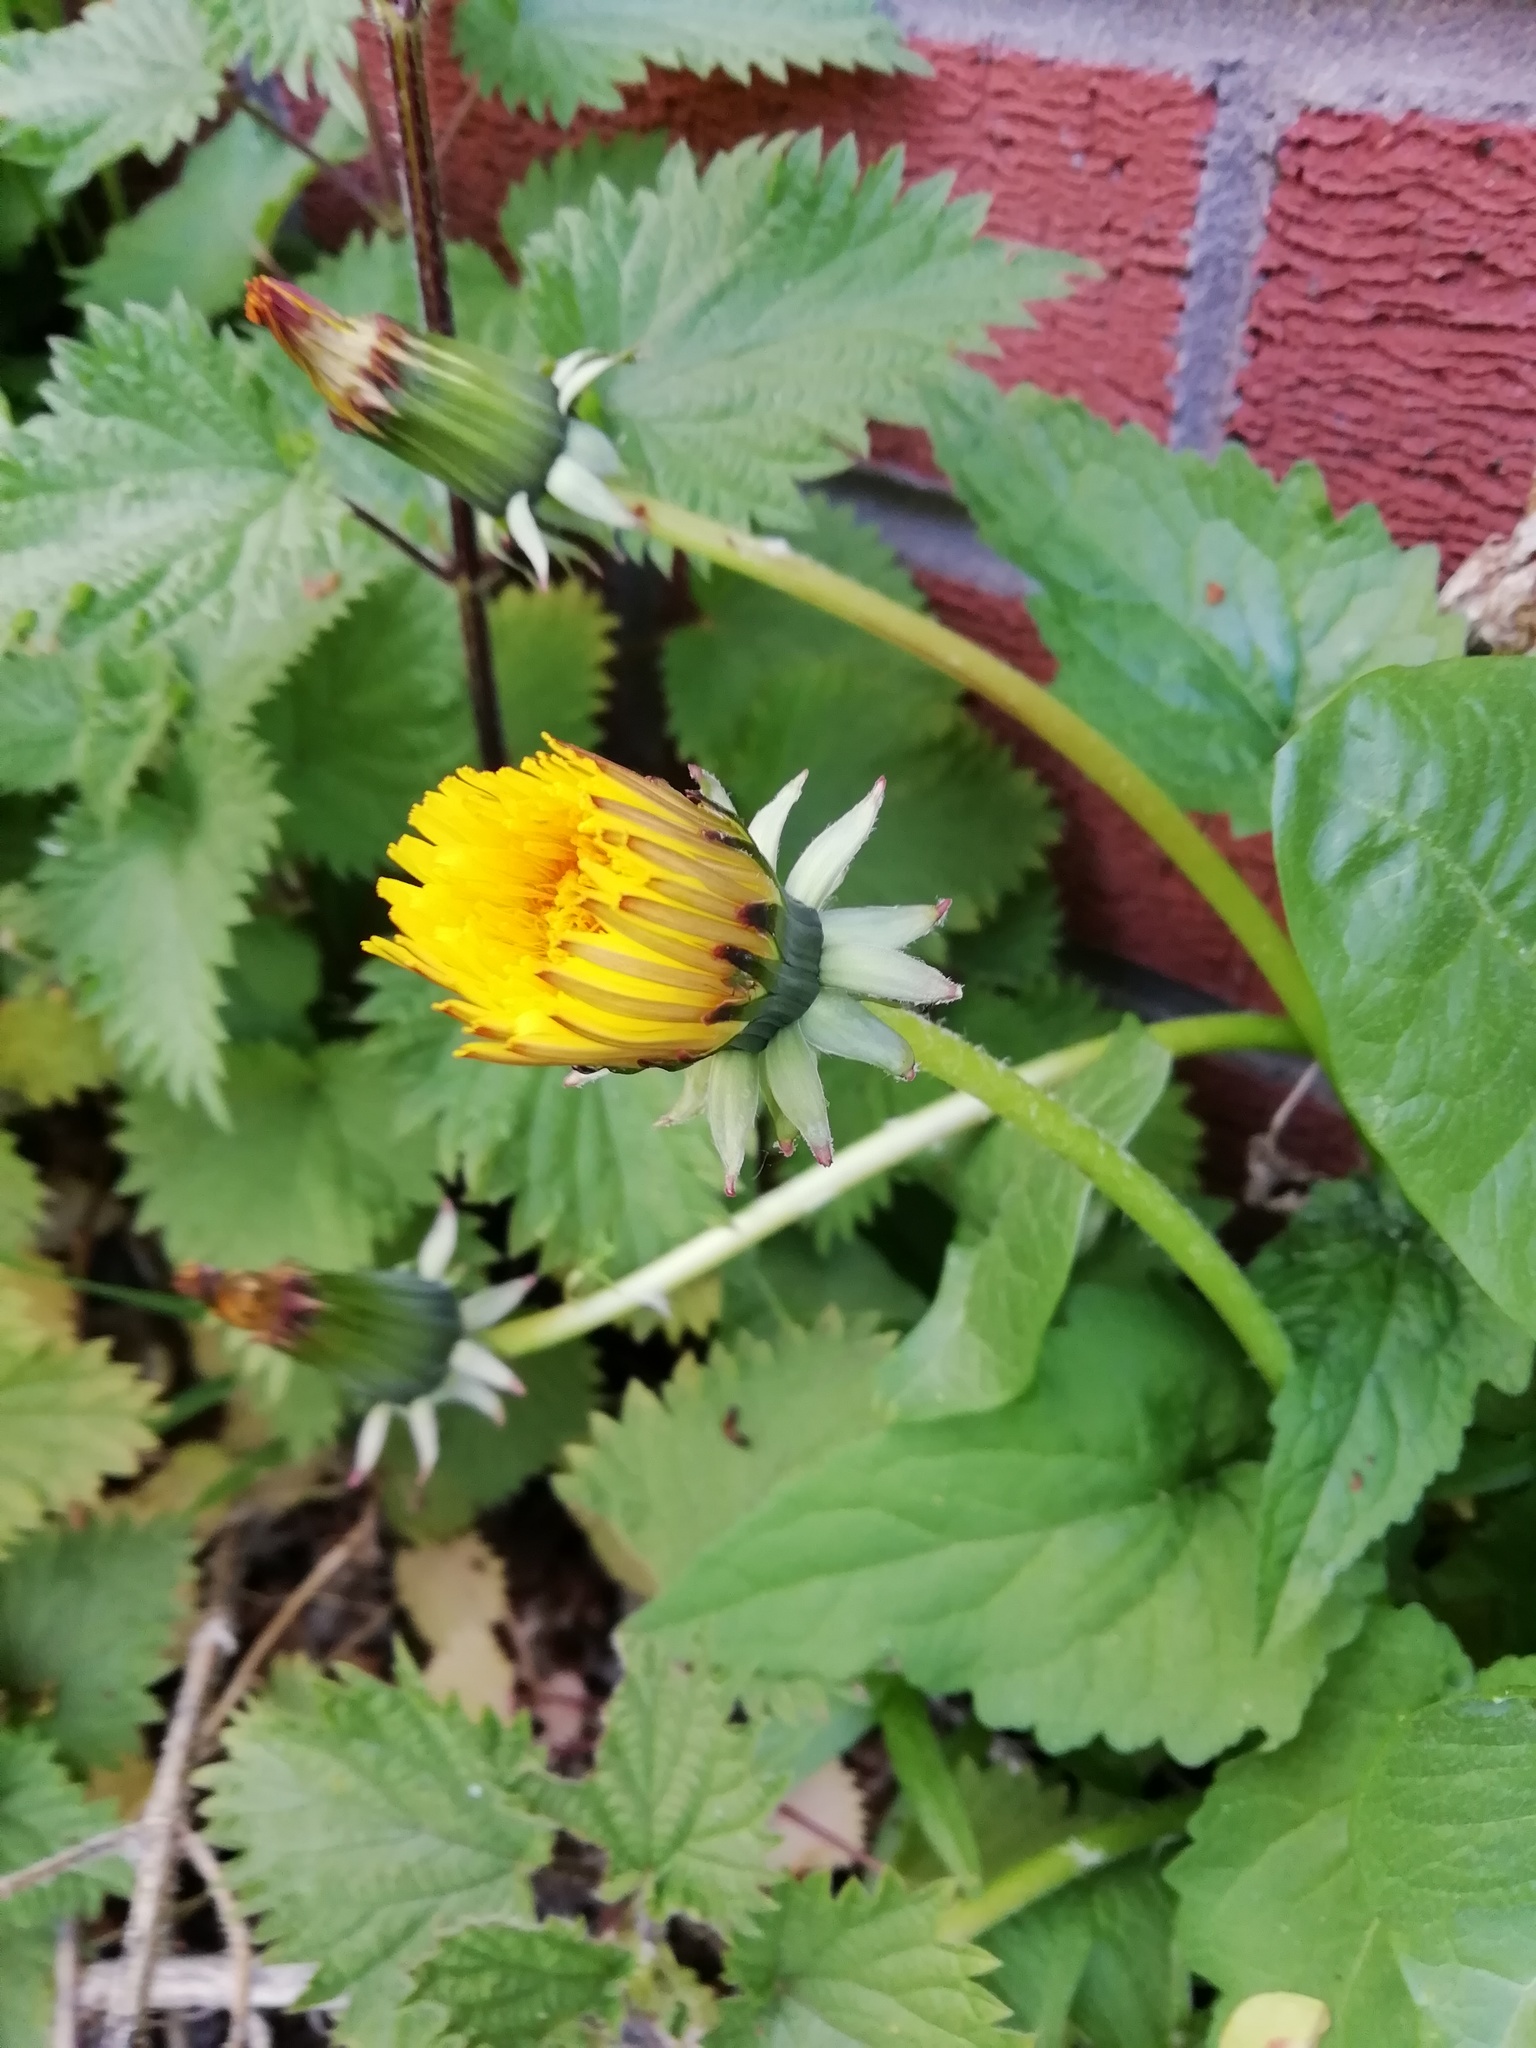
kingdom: Plantae
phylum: Tracheophyta
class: Magnoliopsida
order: Asterales
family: Asteraceae
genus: Taraxacum
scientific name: Taraxacum officinale
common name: Common dandelion
